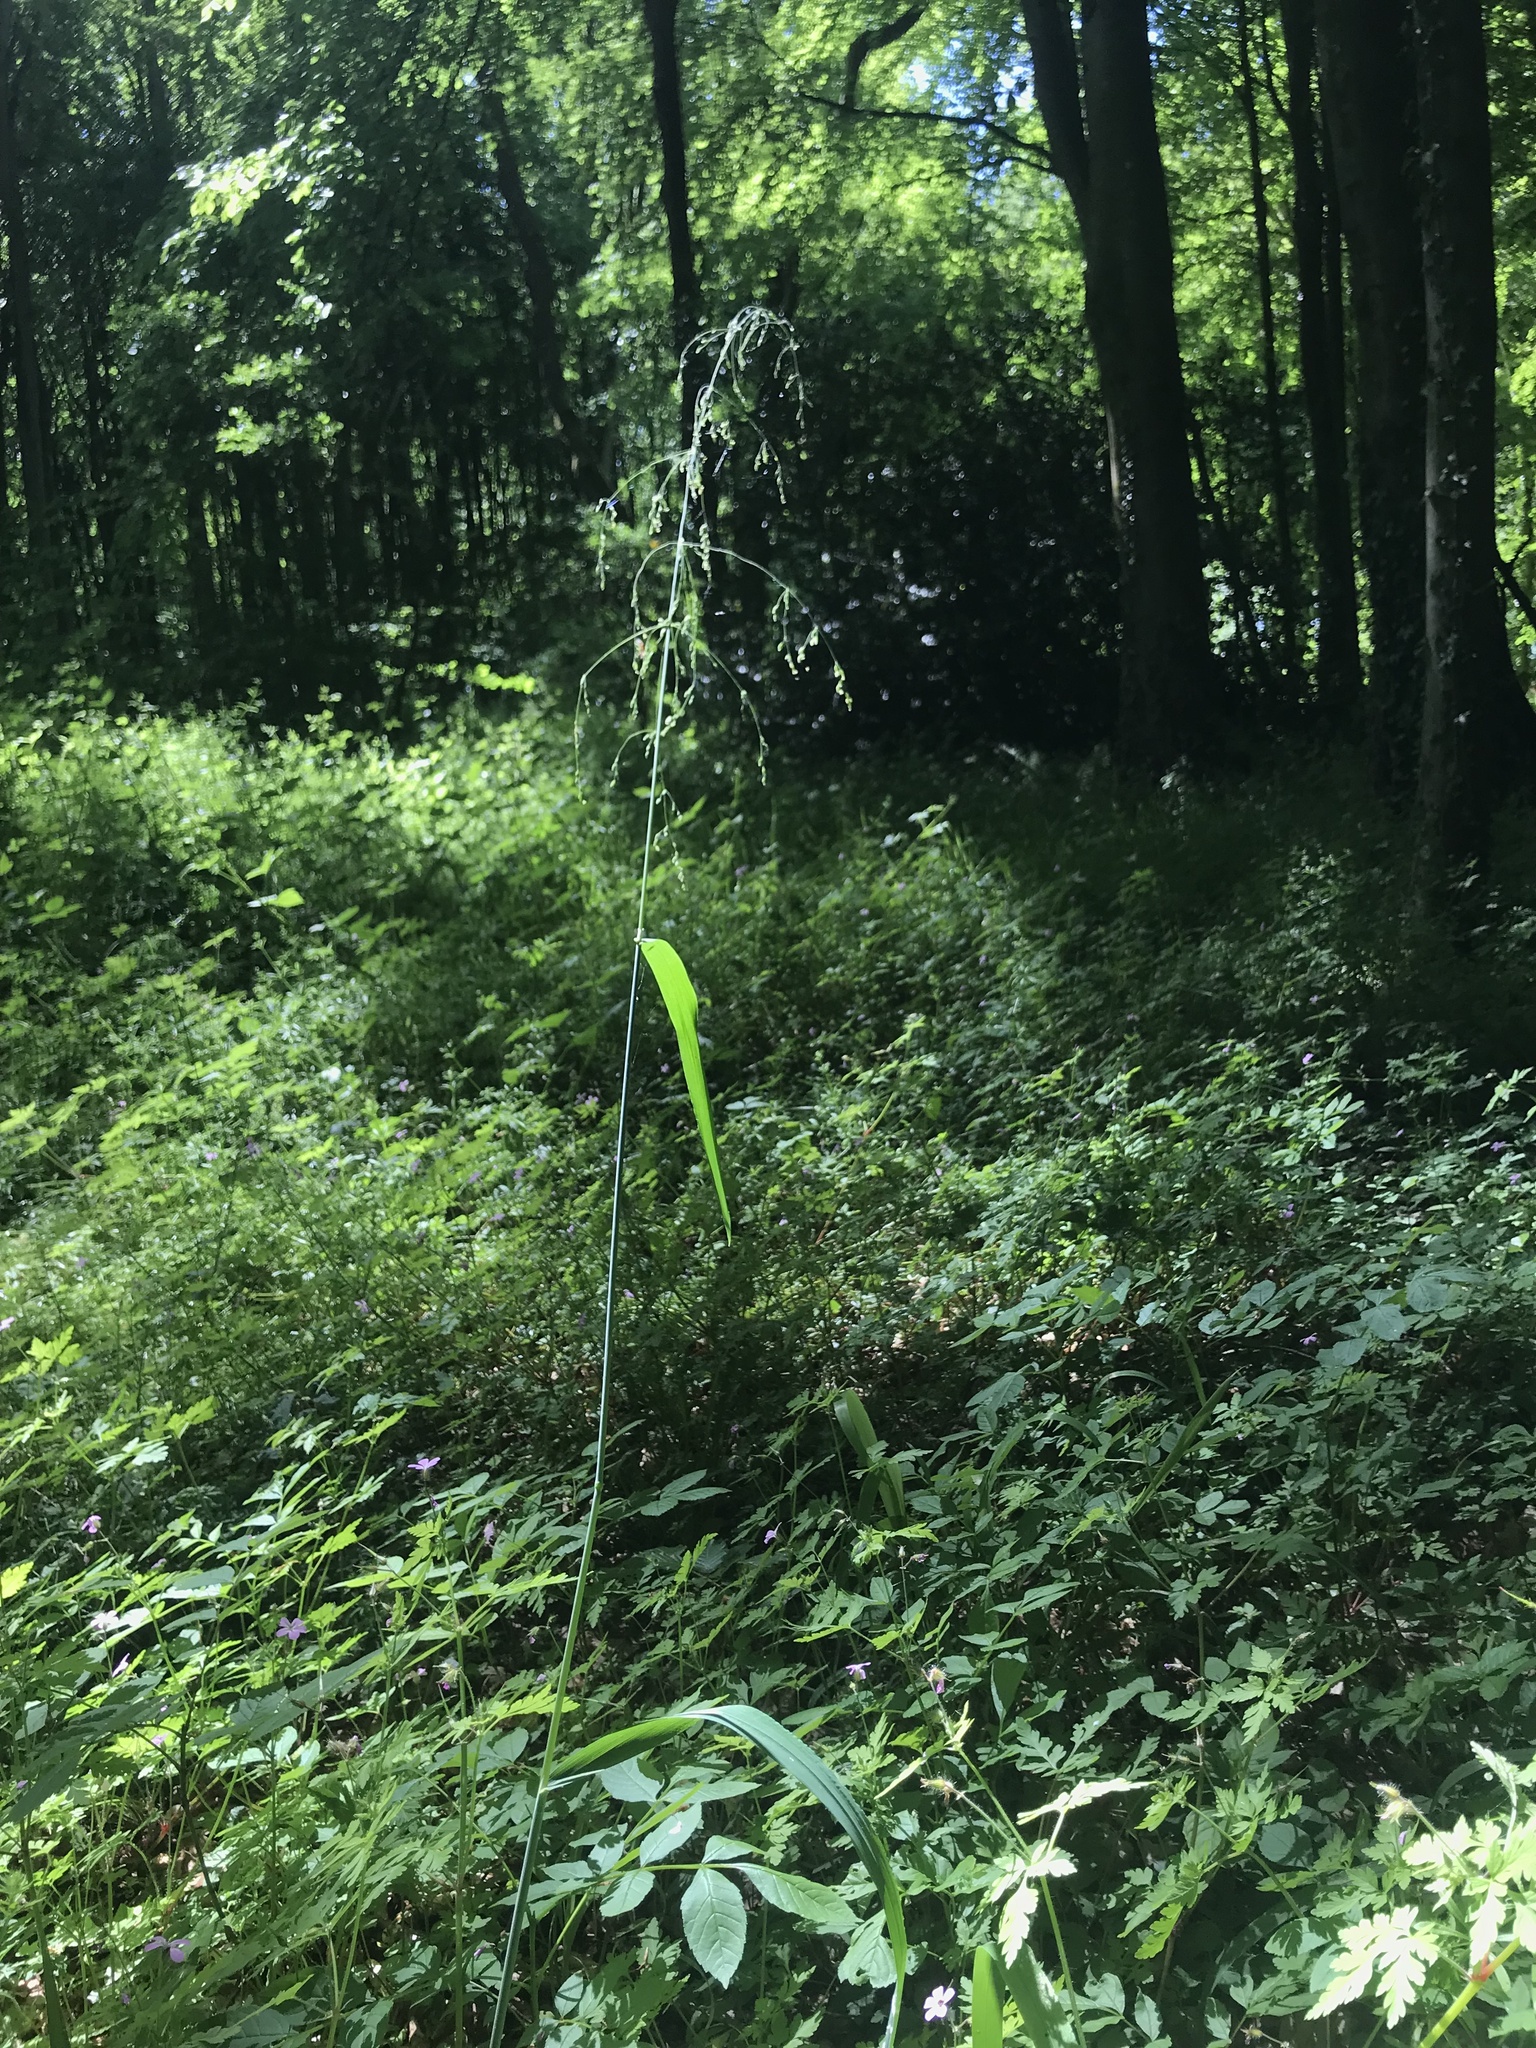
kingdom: Plantae
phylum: Tracheophyta
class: Liliopsida
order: Poales
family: Poaceae
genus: Milium
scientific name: Milium effusum
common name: Wood millet
